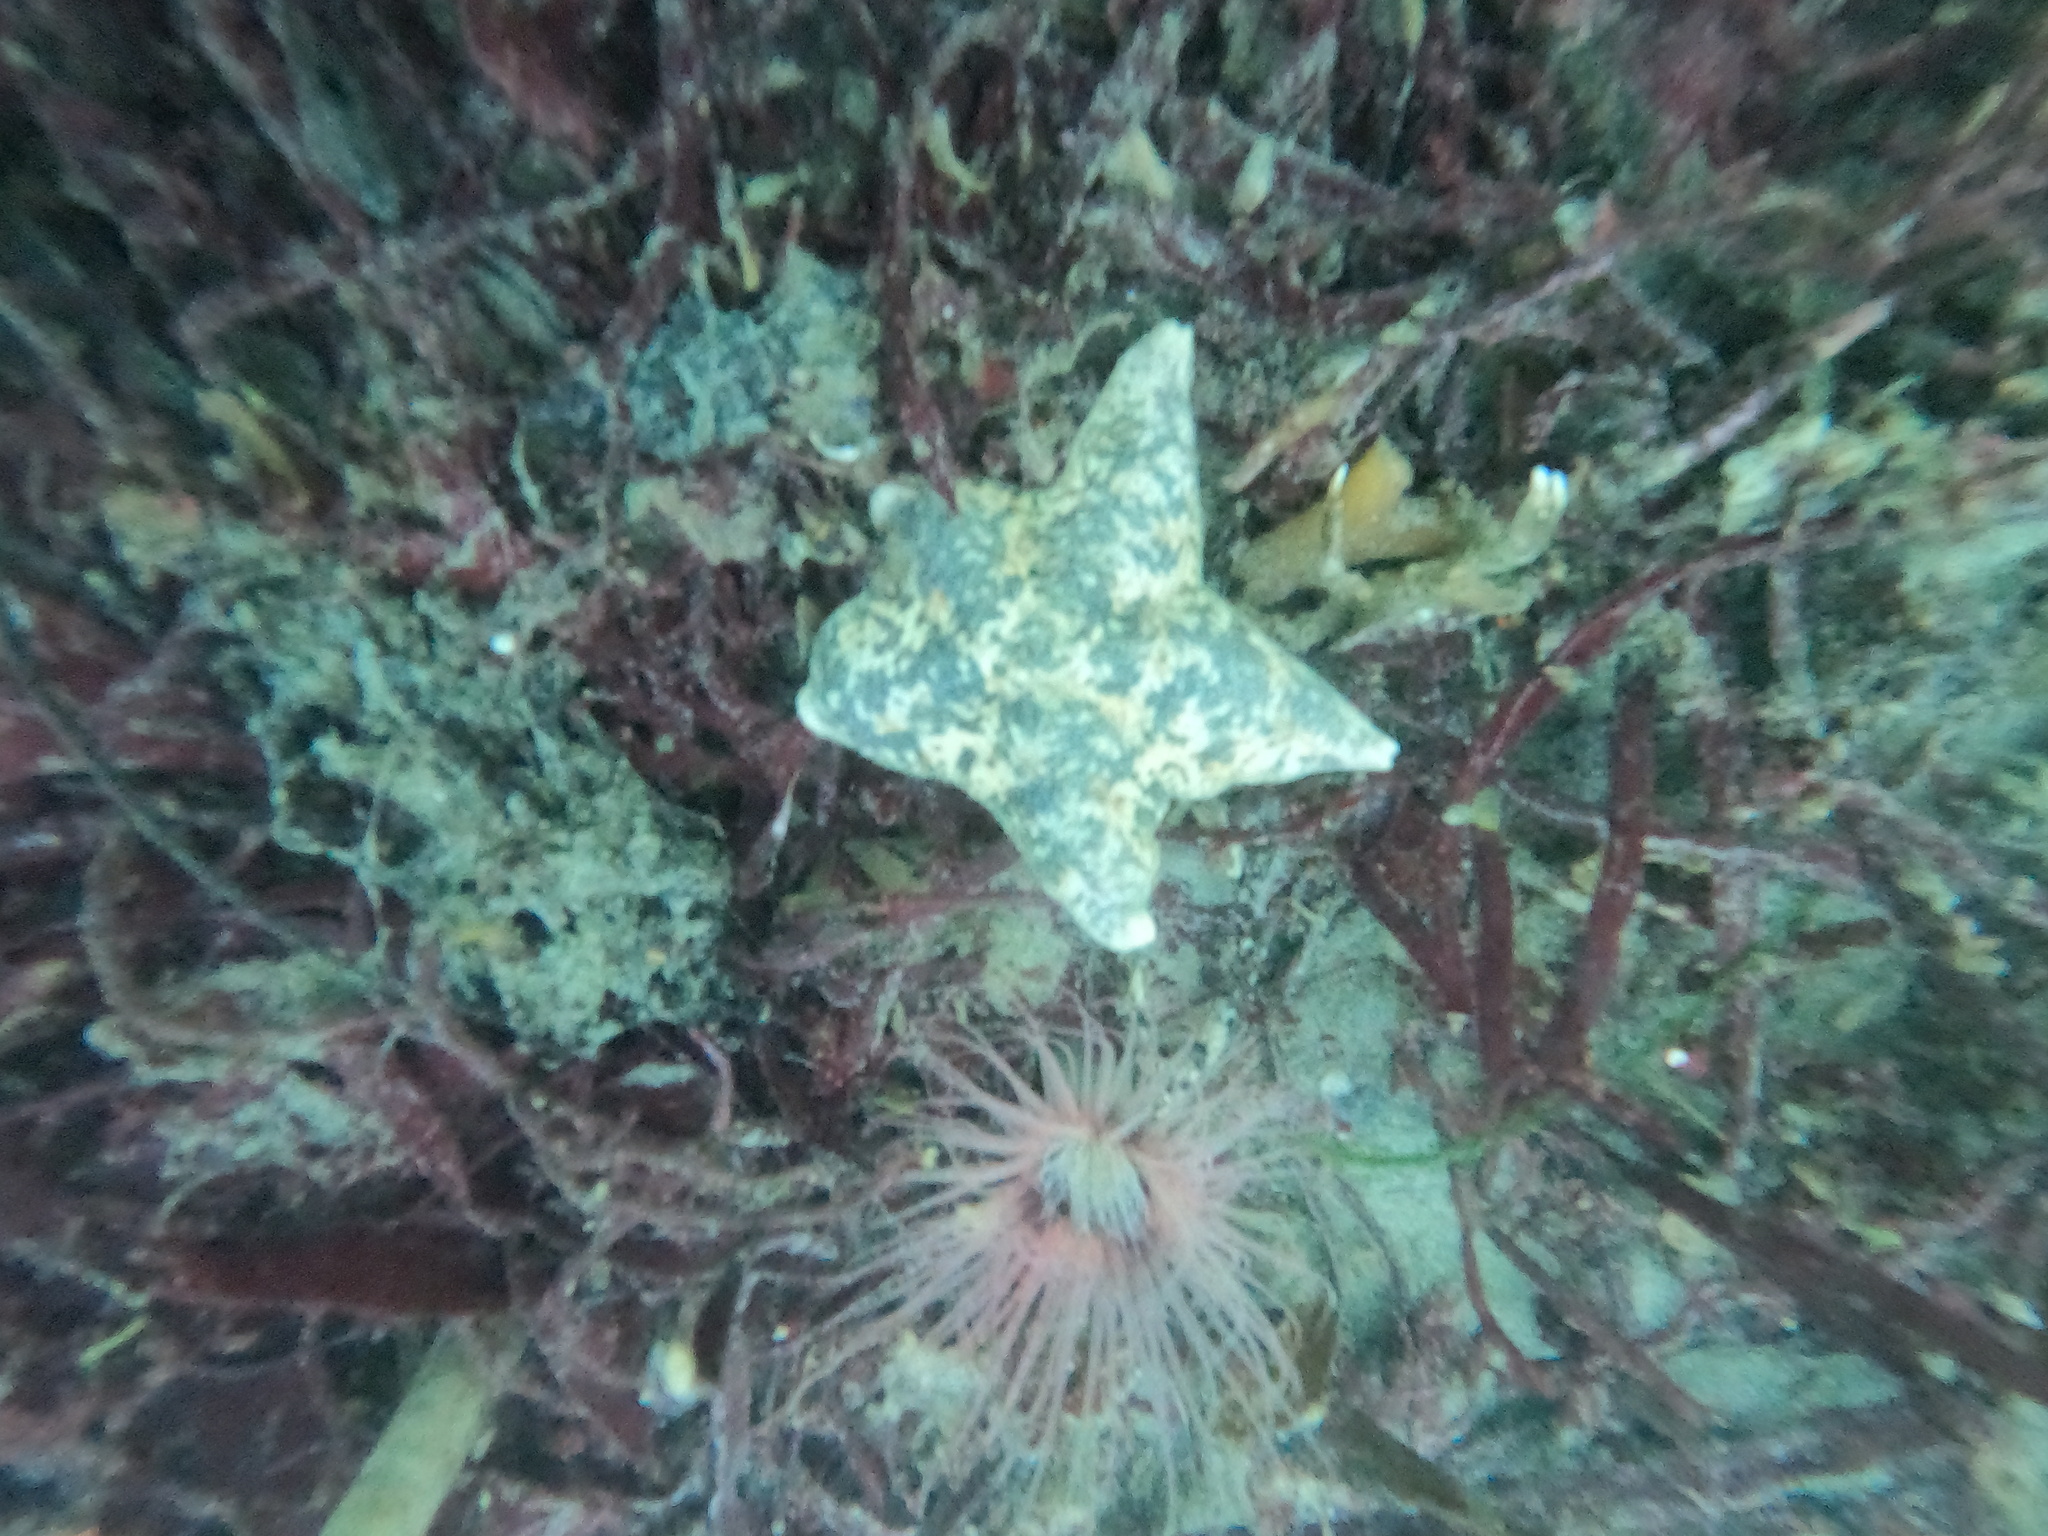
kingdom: Animalia
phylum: Echinodermata
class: Asteroidea
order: Valvatida
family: Asterinidae
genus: Patiria
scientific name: Patiria miniata
